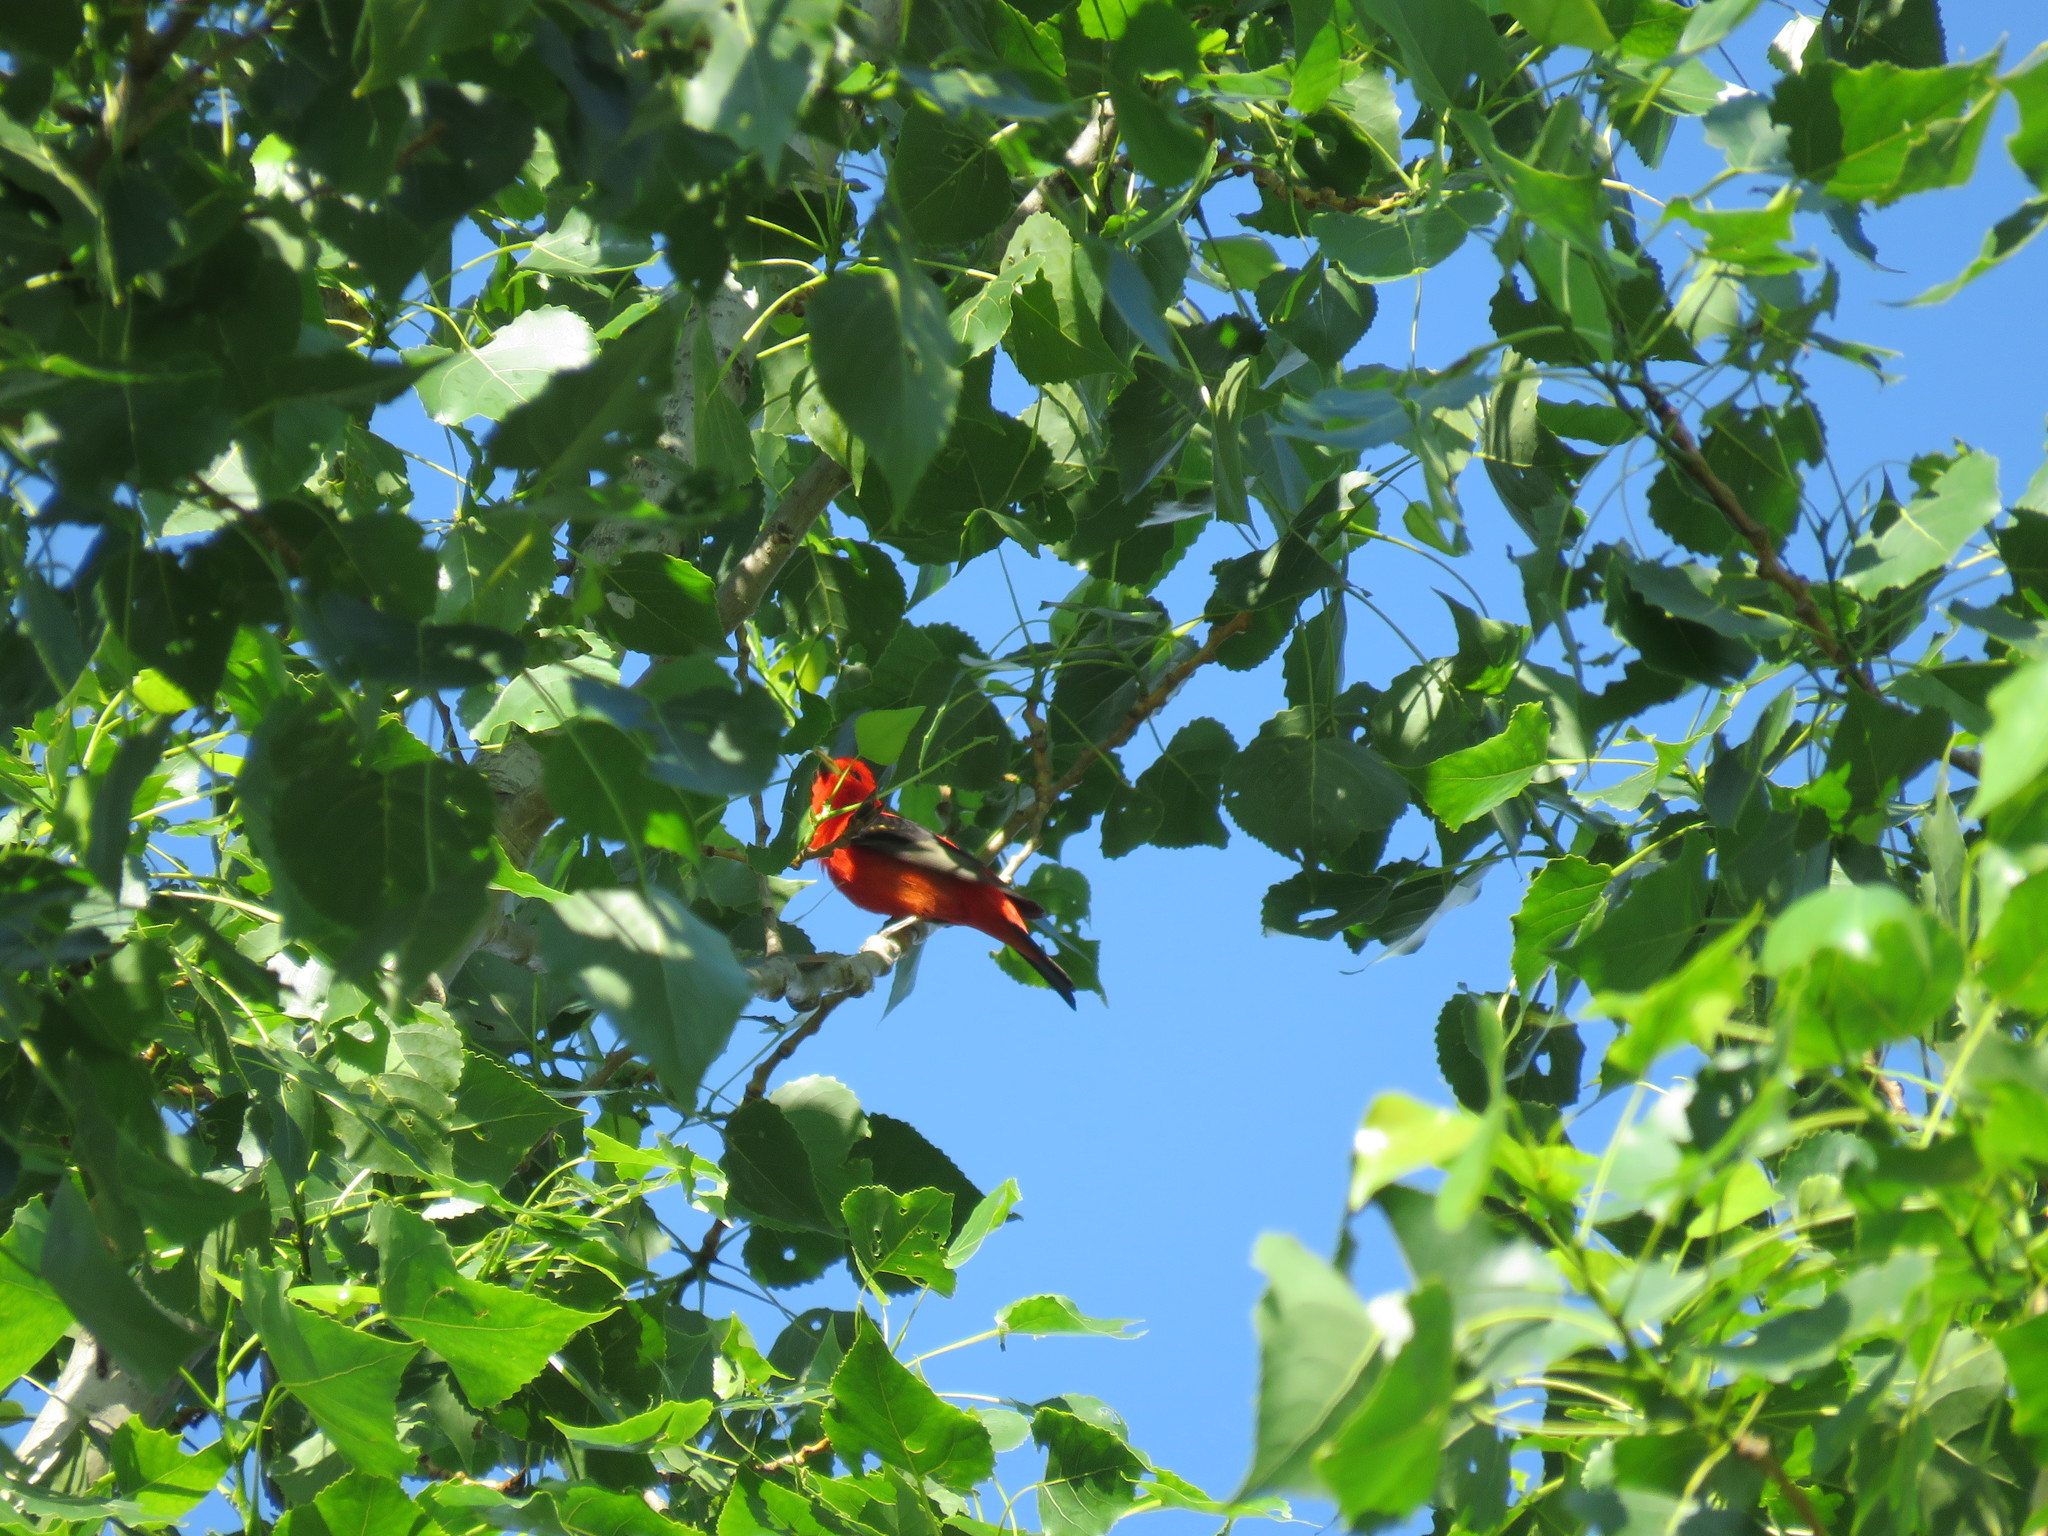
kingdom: Animalia
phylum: Chordata
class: Aves
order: Passeriformes
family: Cardinalidae
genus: Piranga
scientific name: Piranga olivacea
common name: Scarlet tanager
